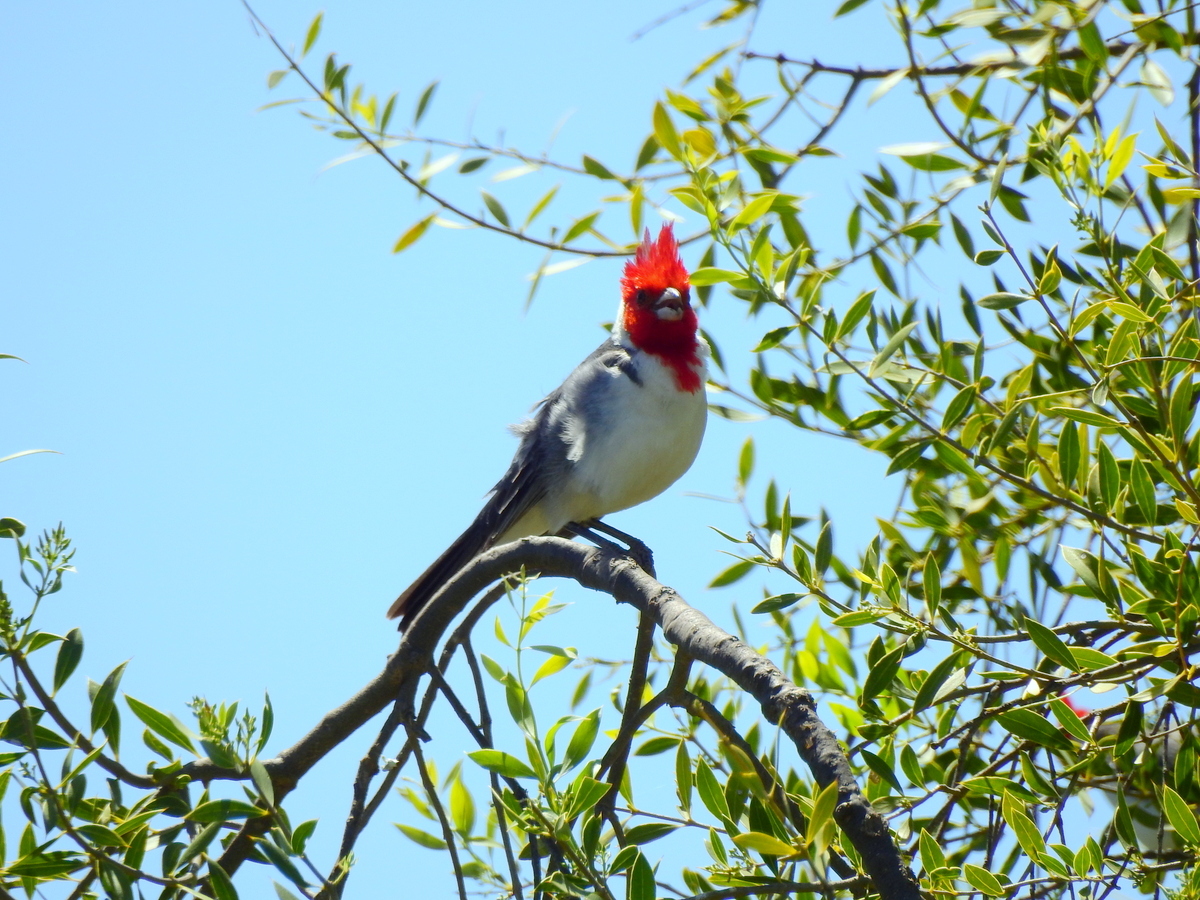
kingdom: Animalia
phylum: Chordata
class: Aves
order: Passeriformes
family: Thraupidae
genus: Paroaria
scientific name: Paroaria coronata
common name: Red-crested cardinal
